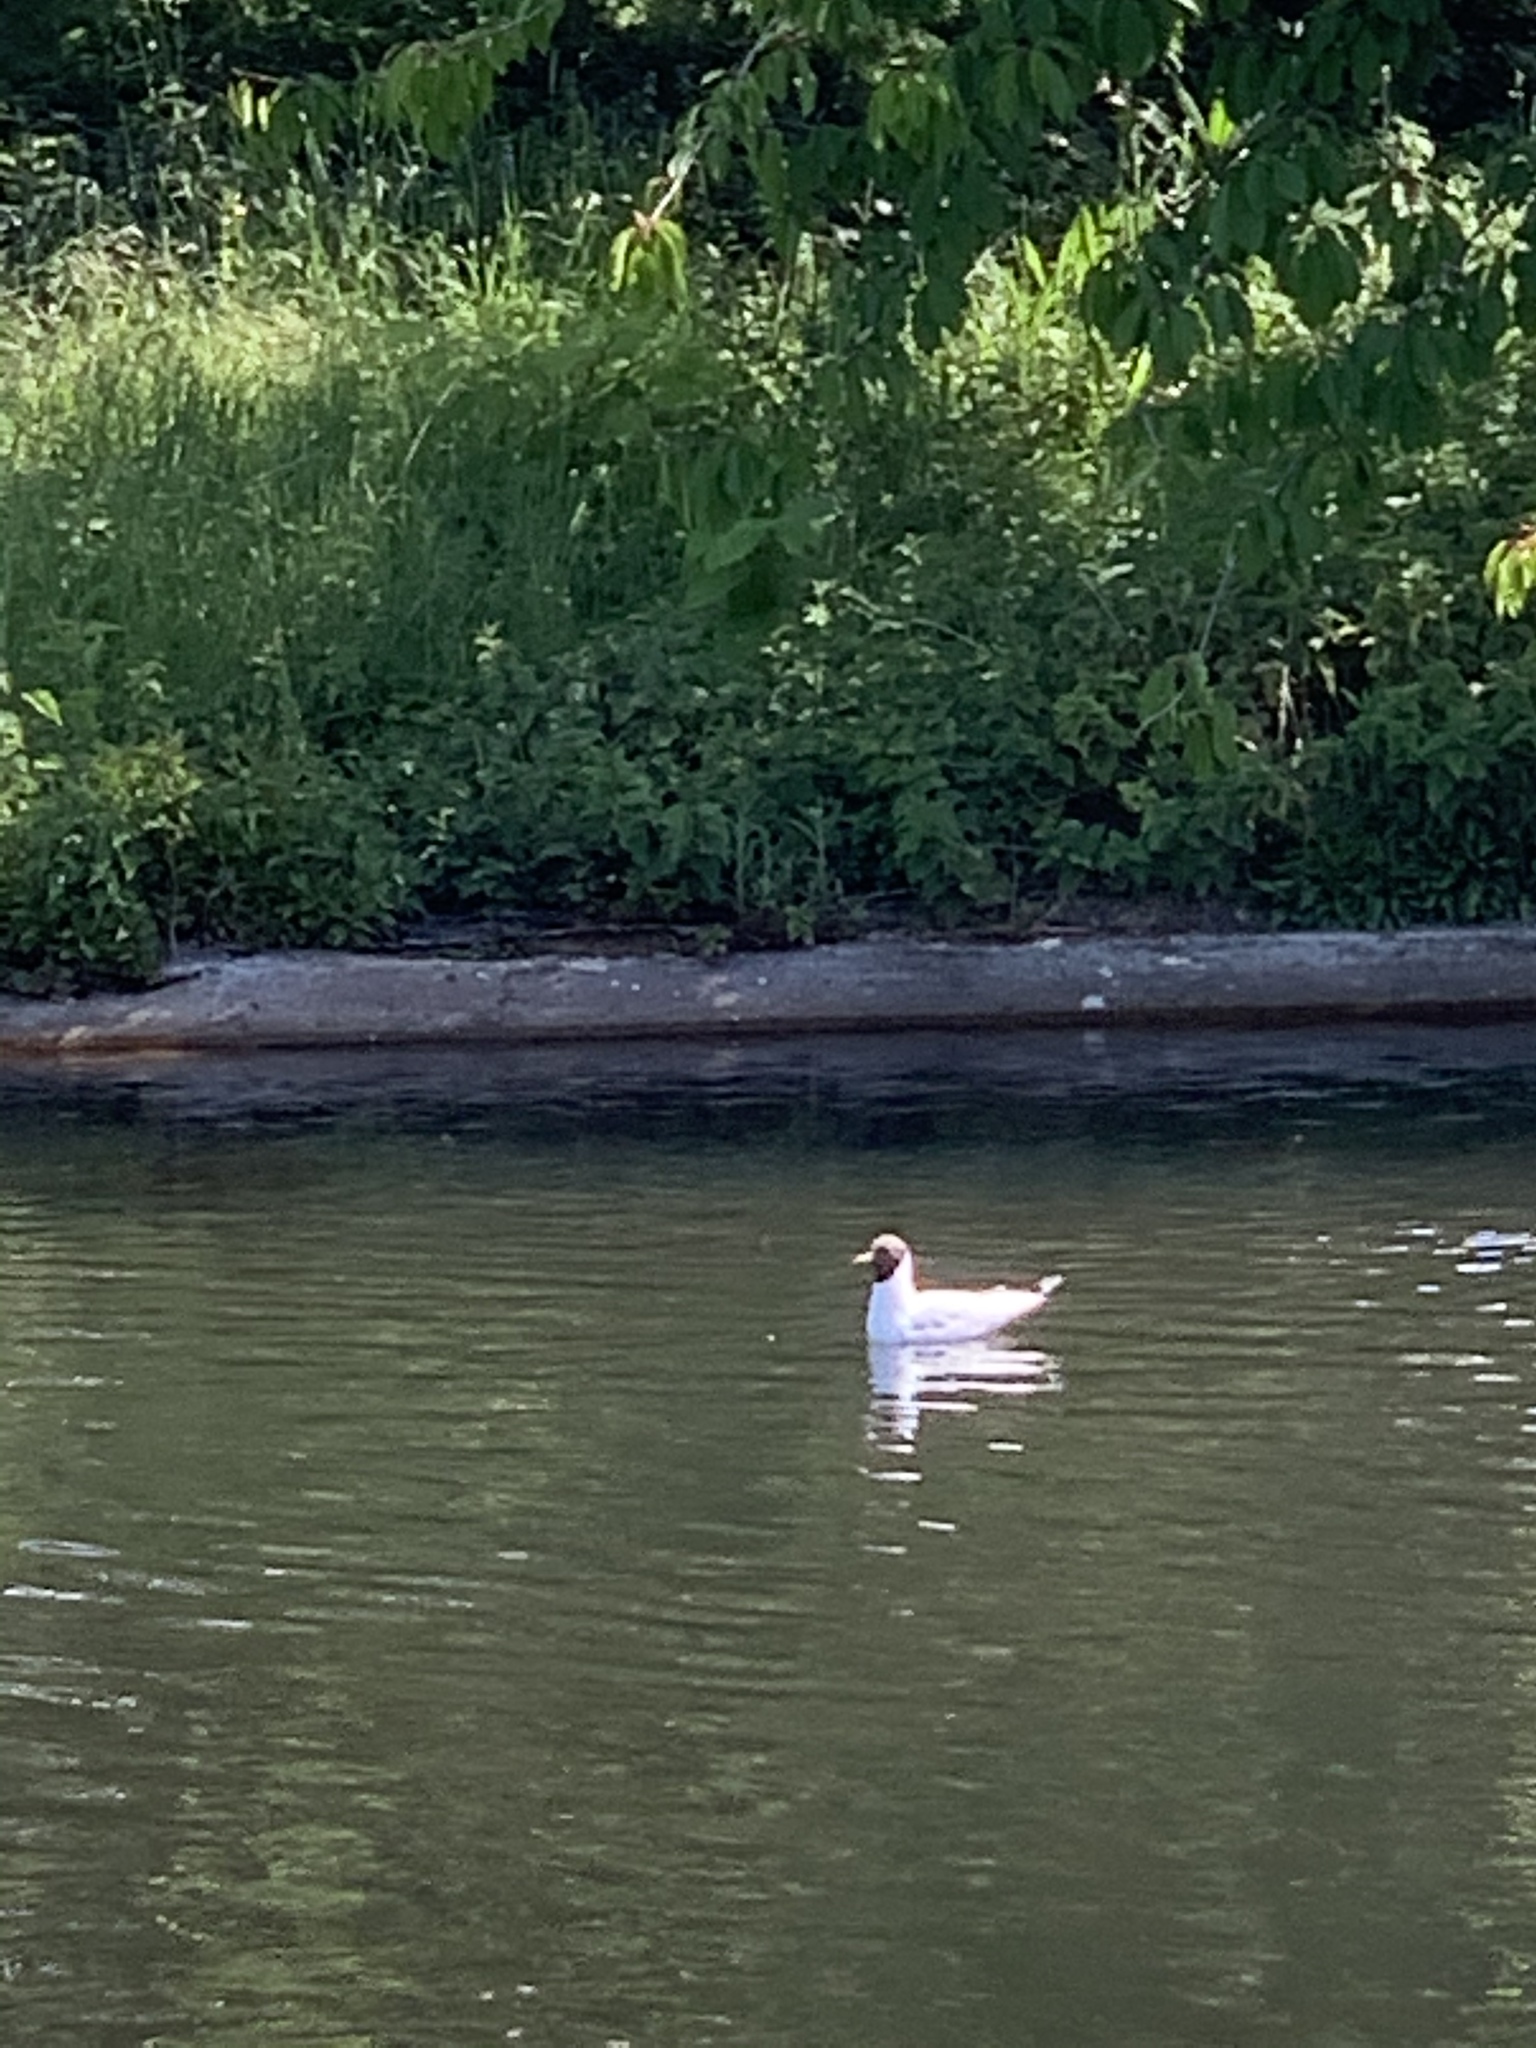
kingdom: Animalia
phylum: Chordata
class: Aves
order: Charadriiformes
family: Laridae
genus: Chroicocephalus
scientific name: Chroicocephalus ridibundus
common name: Black-headed gull
